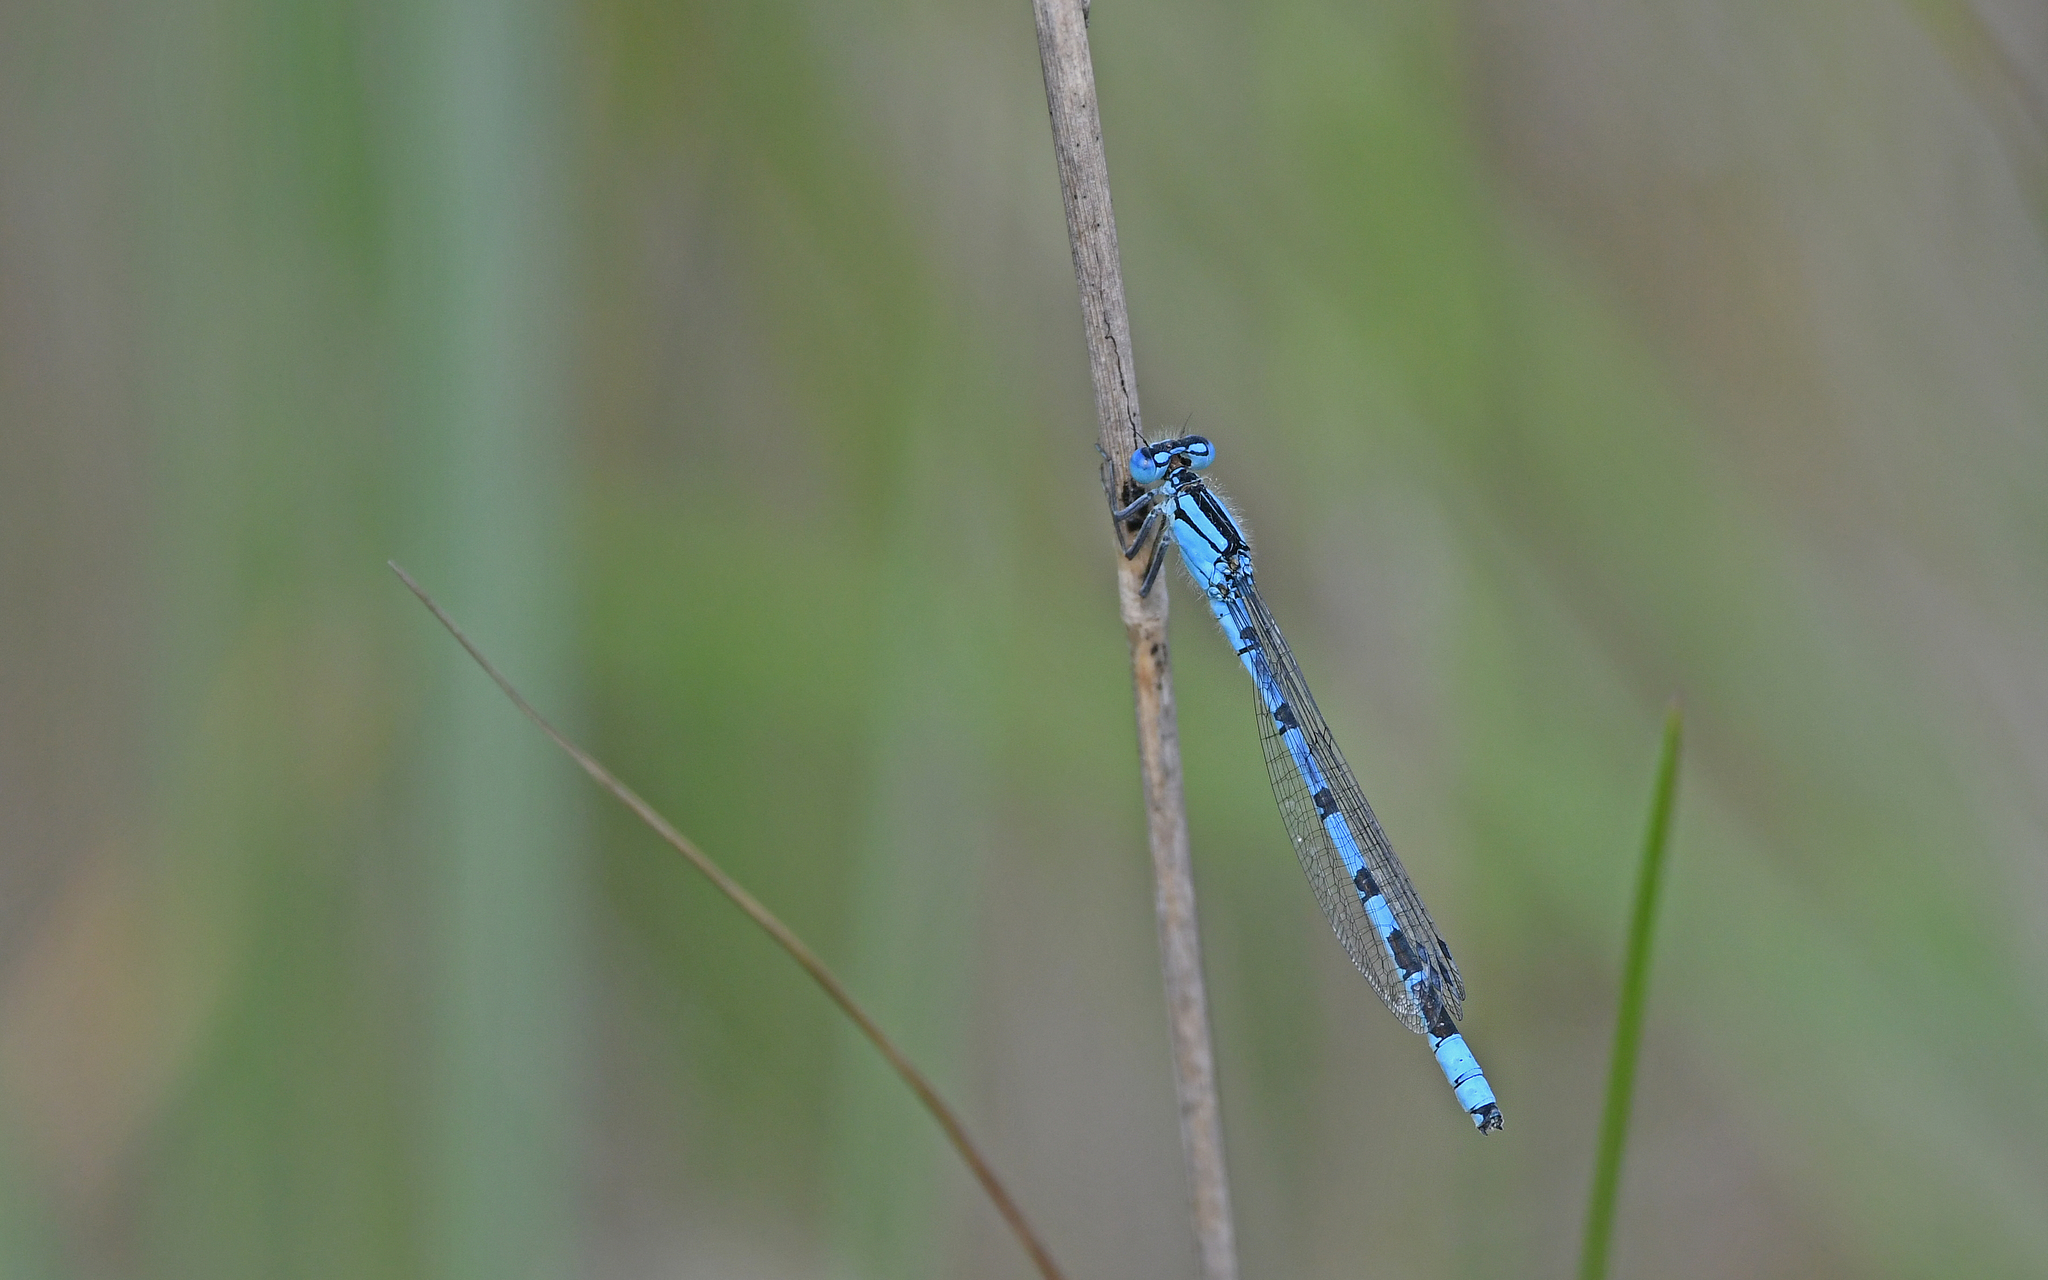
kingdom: Animalia
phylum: Arthropoda
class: Insecta
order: Odonata
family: Coenagrionidae
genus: Enallagma
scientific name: Enallagma cyathigerum
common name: Common blue damselfly
